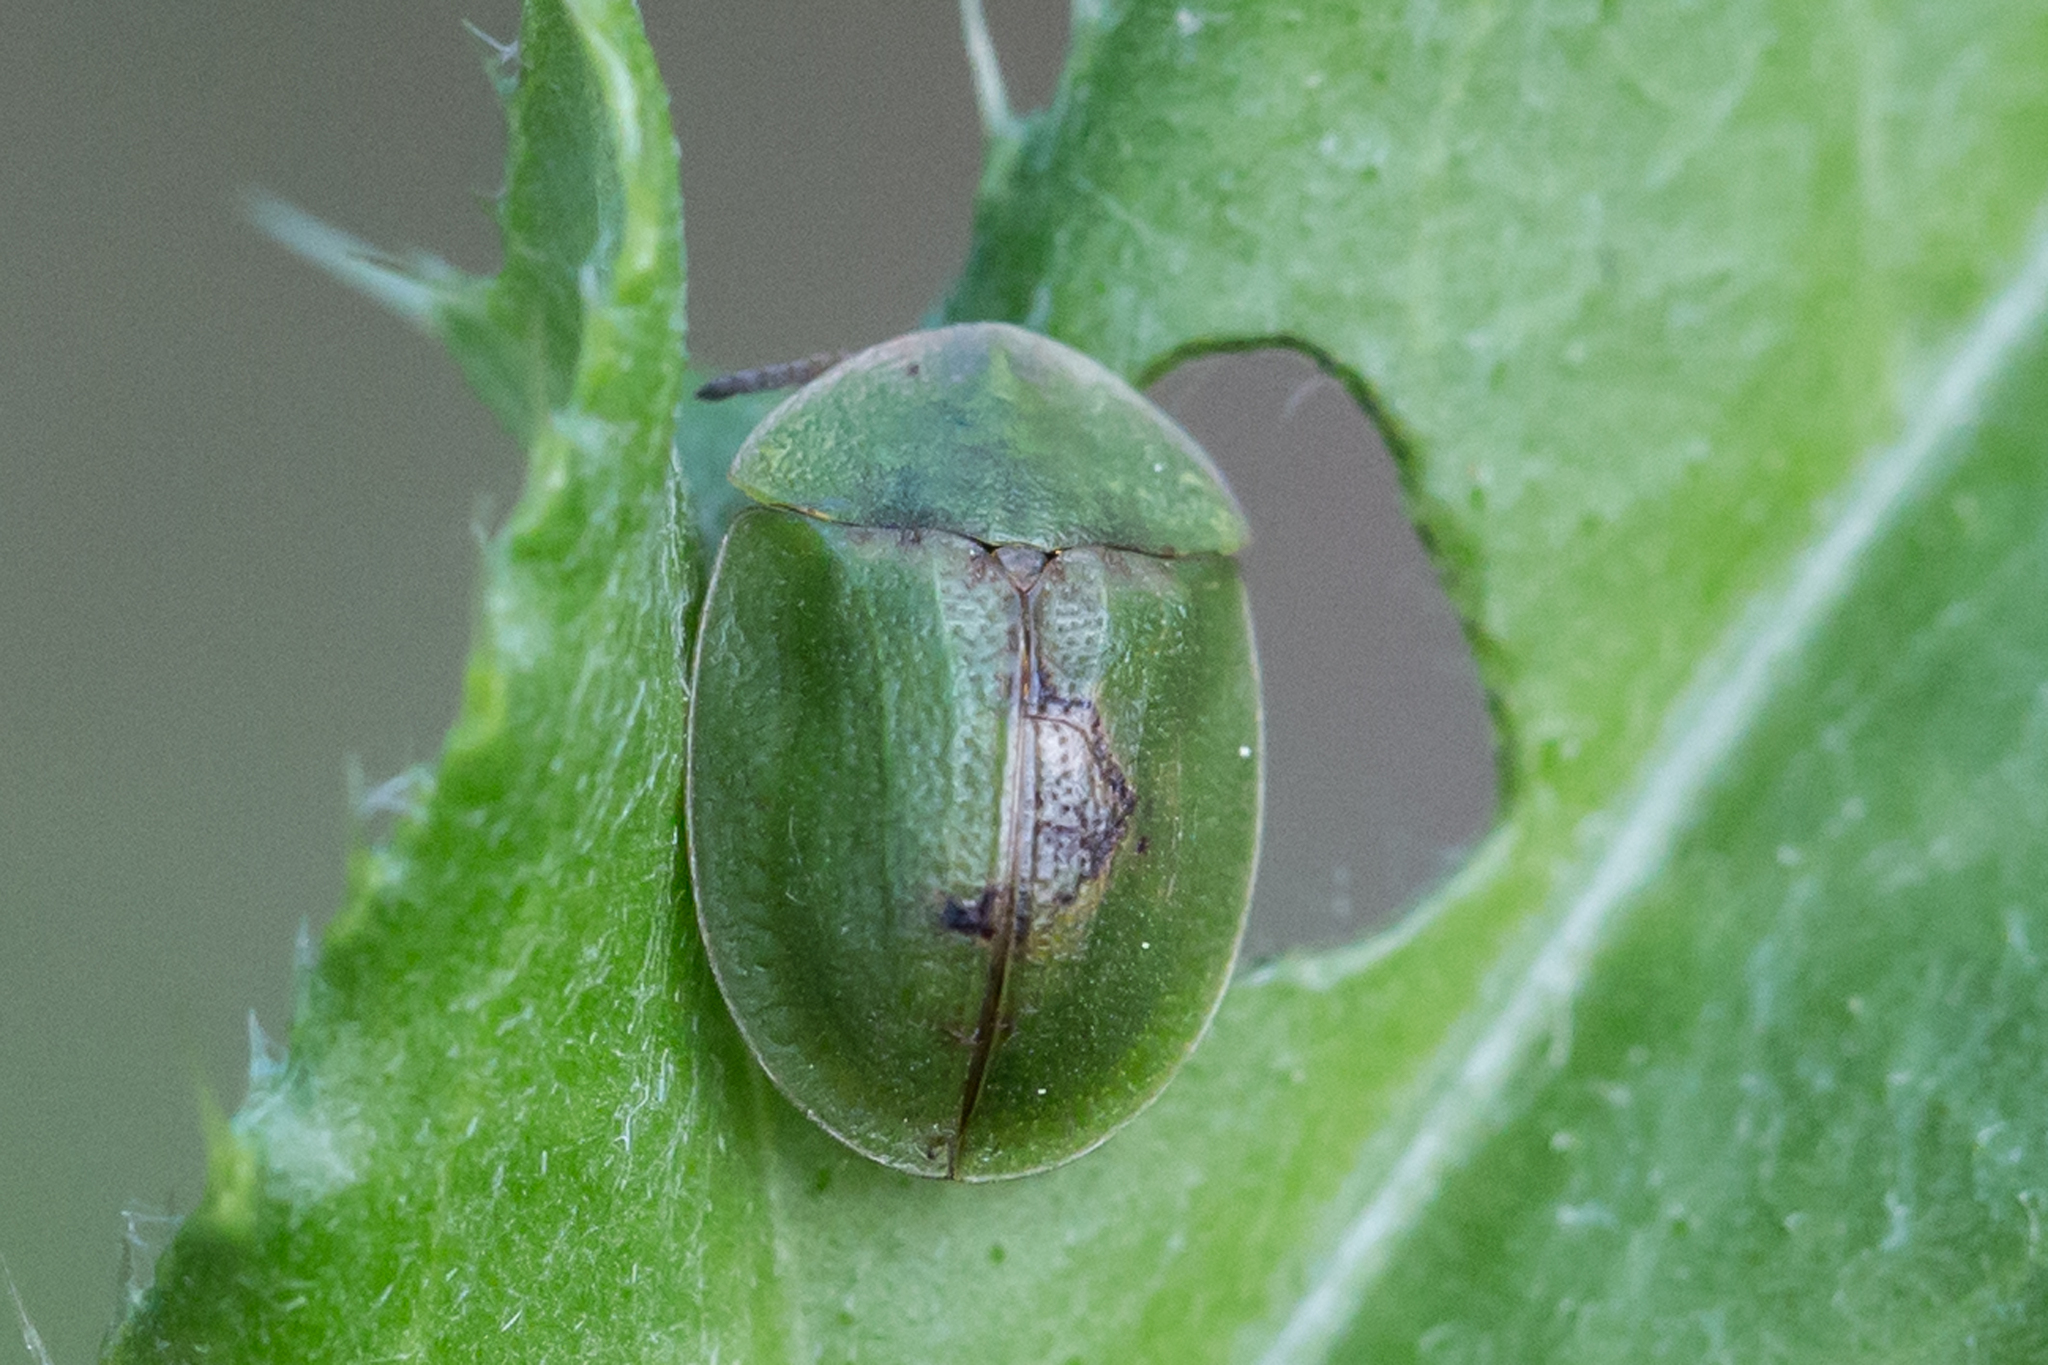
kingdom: Animalia
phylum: Arthropoda
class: Insecta
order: Coleoptera
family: Chrysomelidae
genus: Cassida
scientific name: Cassida rubiginosa
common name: Thistle tortoise beetle
